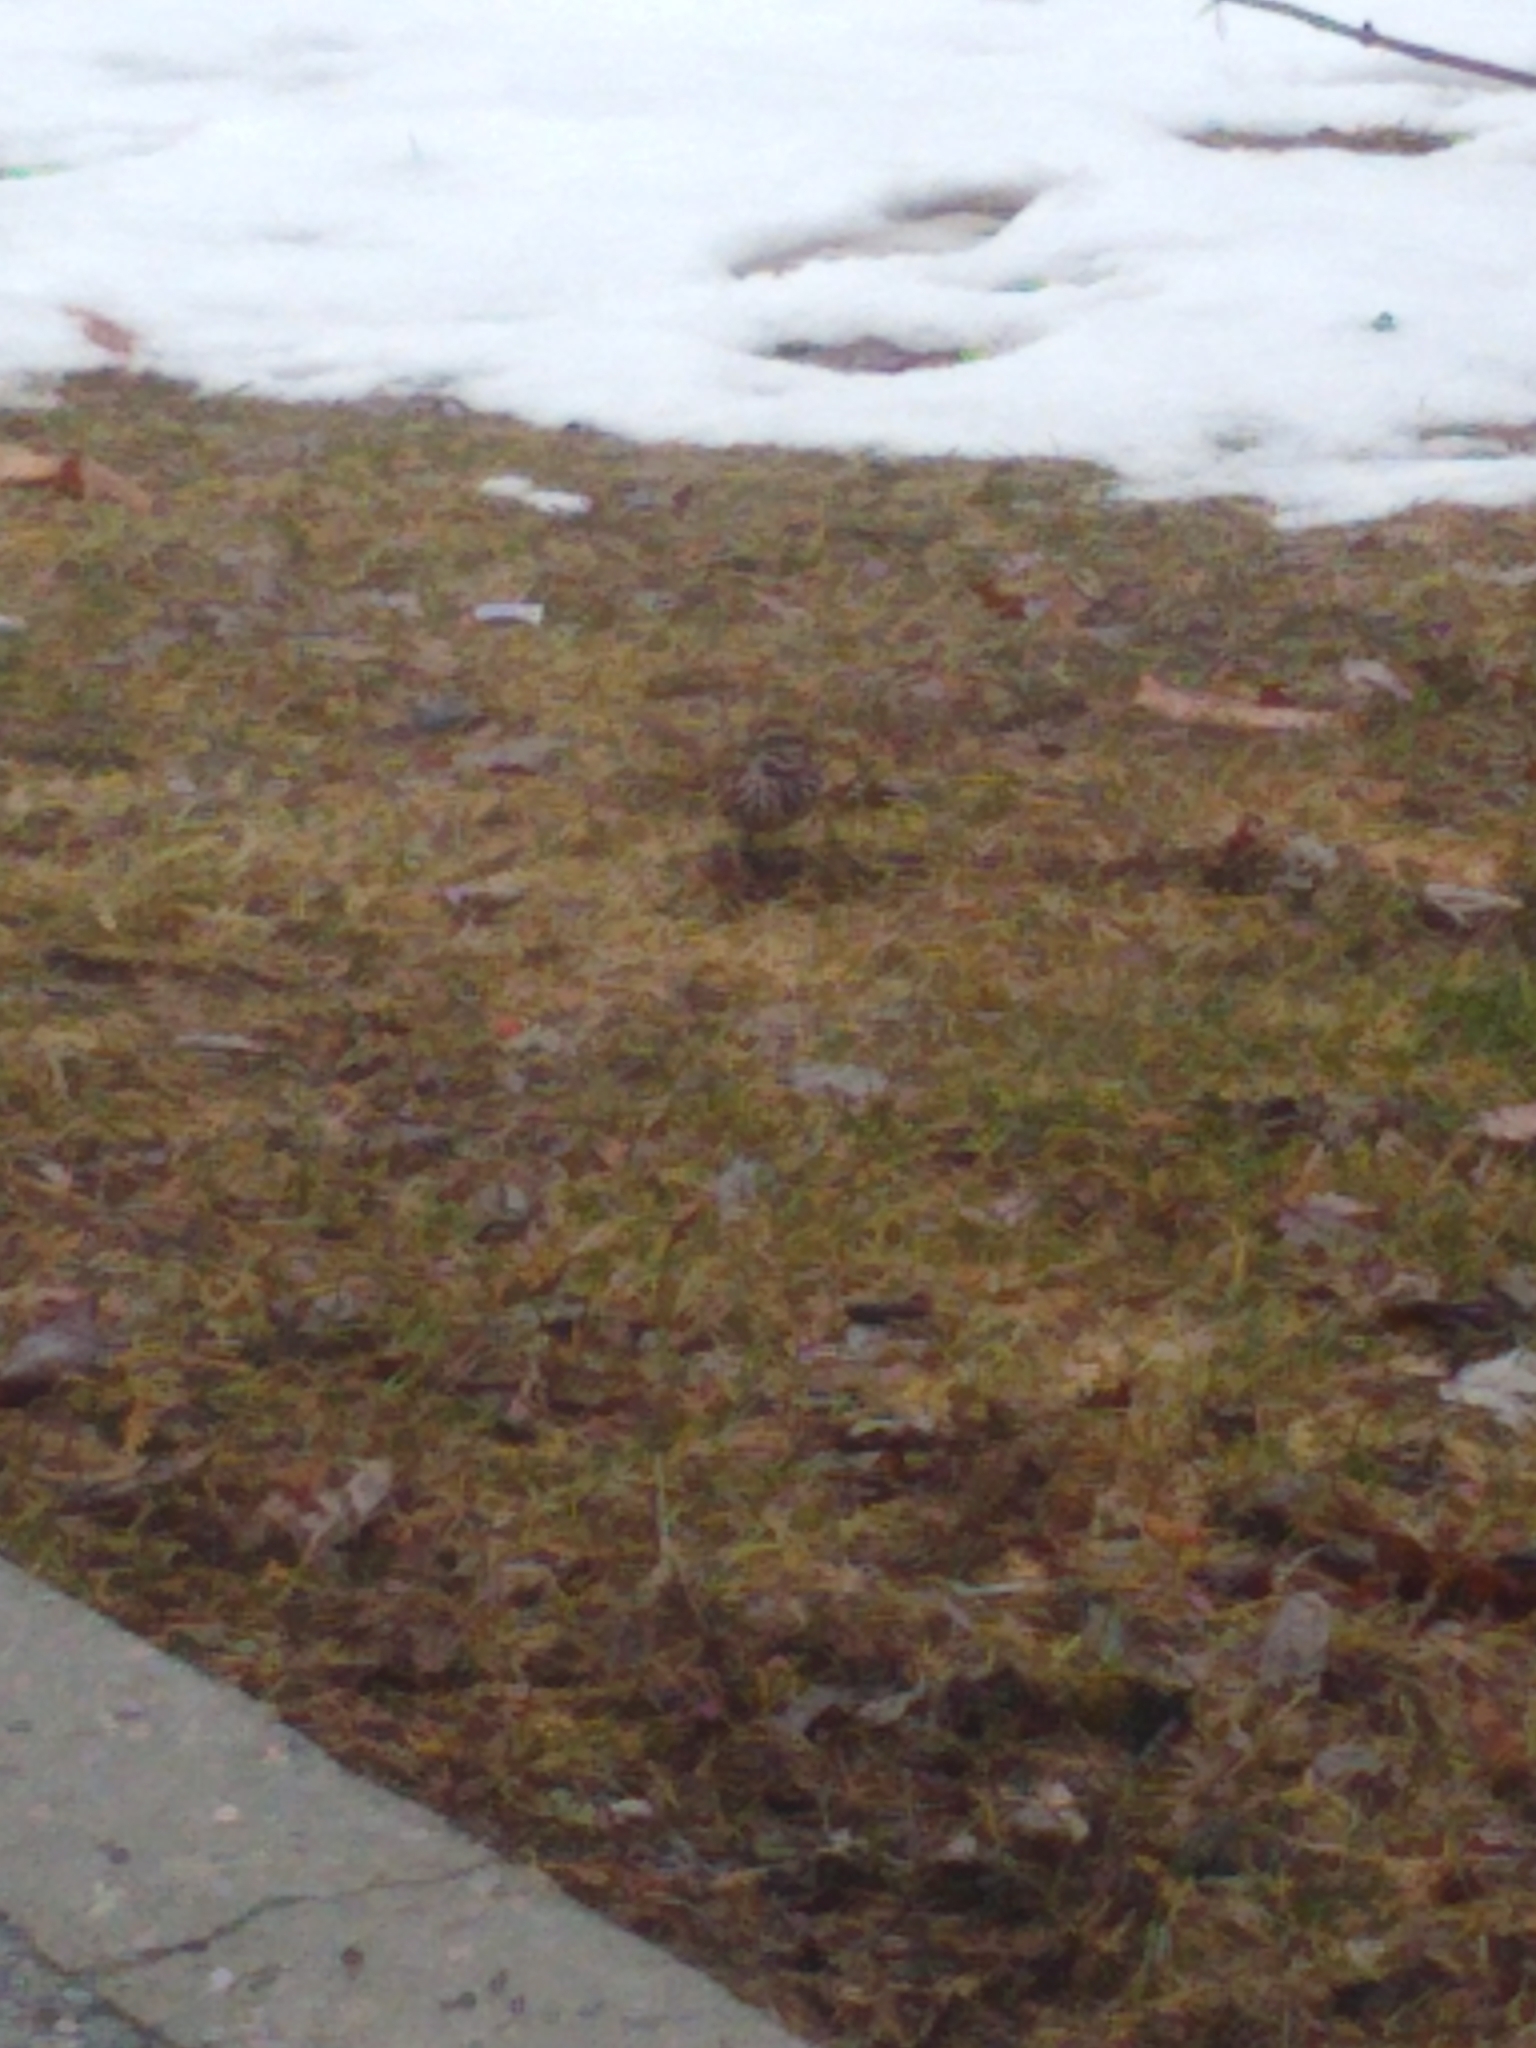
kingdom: Animalia
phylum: Chordata
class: Aves
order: Passeriformes
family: Passerellidae
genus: Melospiza
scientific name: Melospiza melodia
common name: Song sparrow
